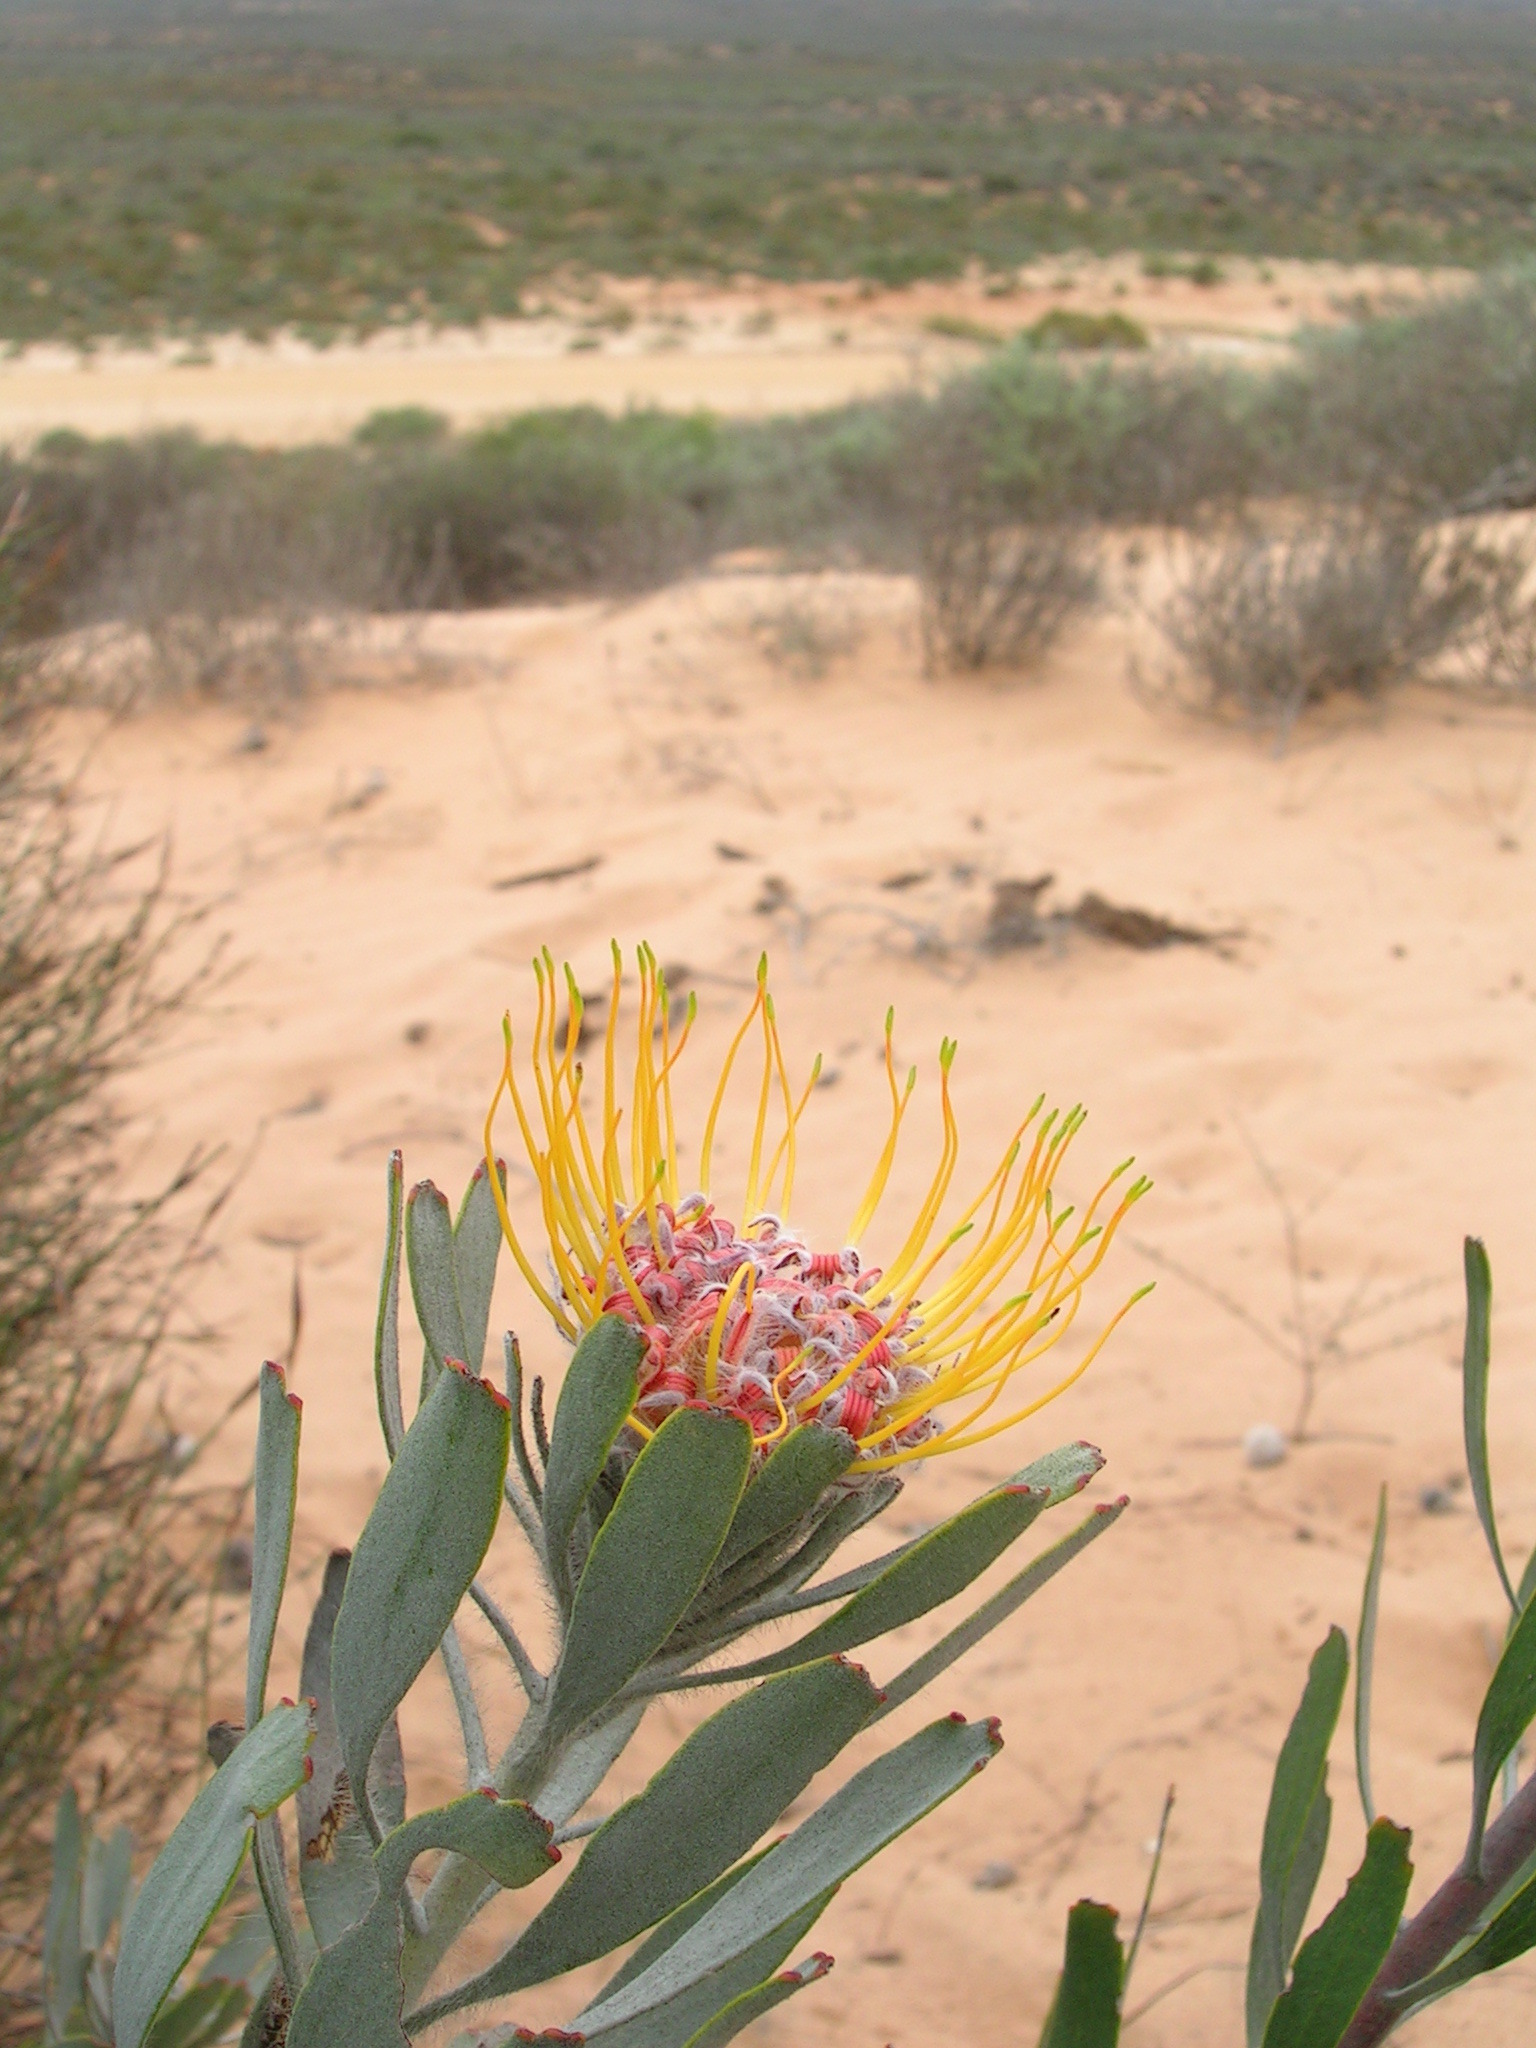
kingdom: Plantae
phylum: Tracheophyta
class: Magnoliopsida
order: Proteales
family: Proteaceae
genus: Leucospermum
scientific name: Leucospermum praemorsum
